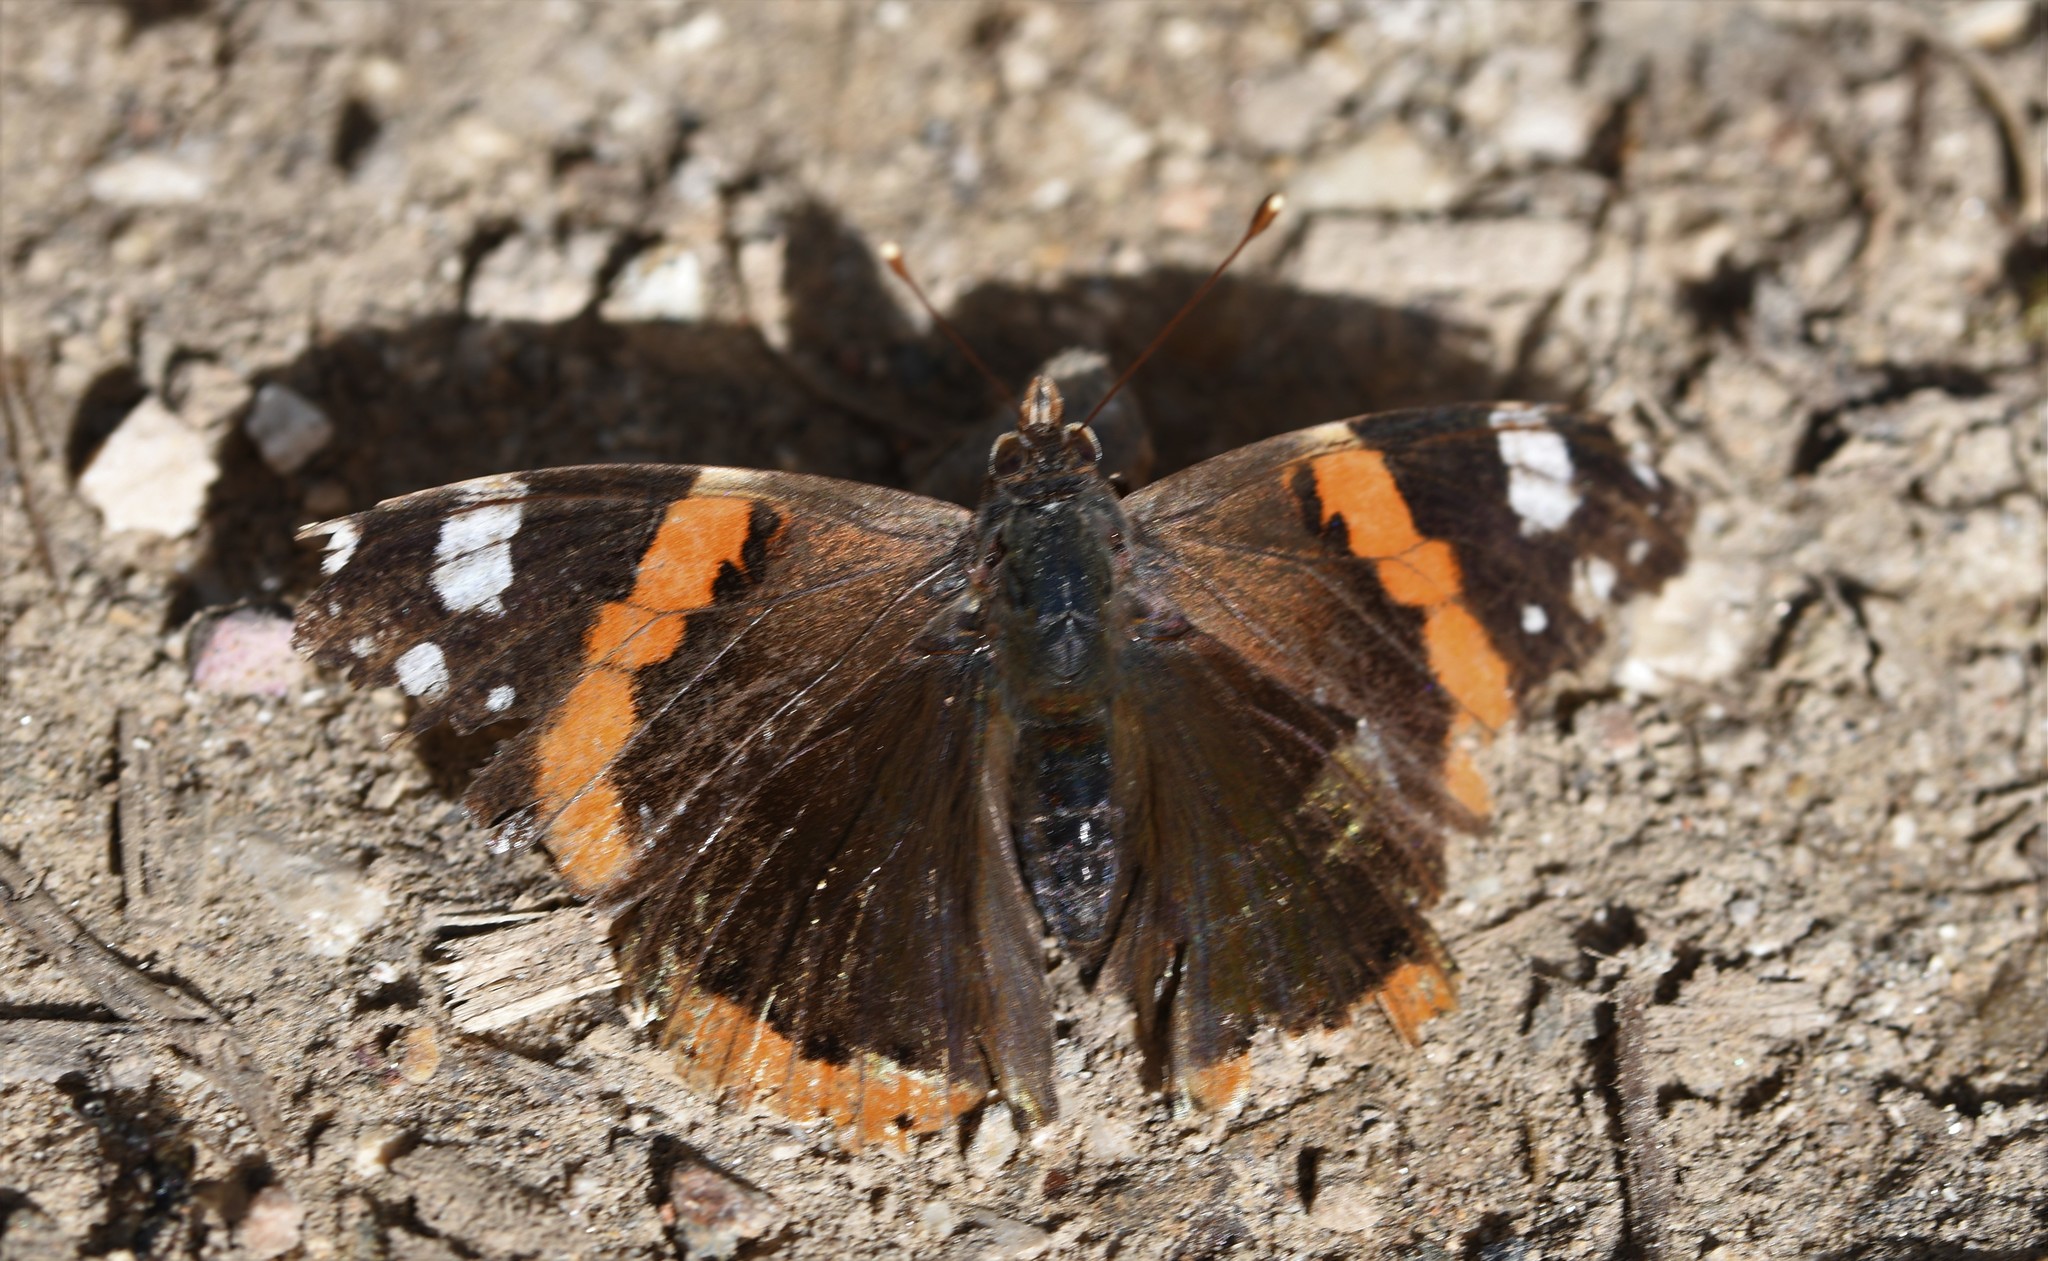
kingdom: Animalia
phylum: Arthropoda
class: Insecta
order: Lepidoptera
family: Nymphalidae
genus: Vanessa
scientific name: Vanessa atalanta
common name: Red admiral
